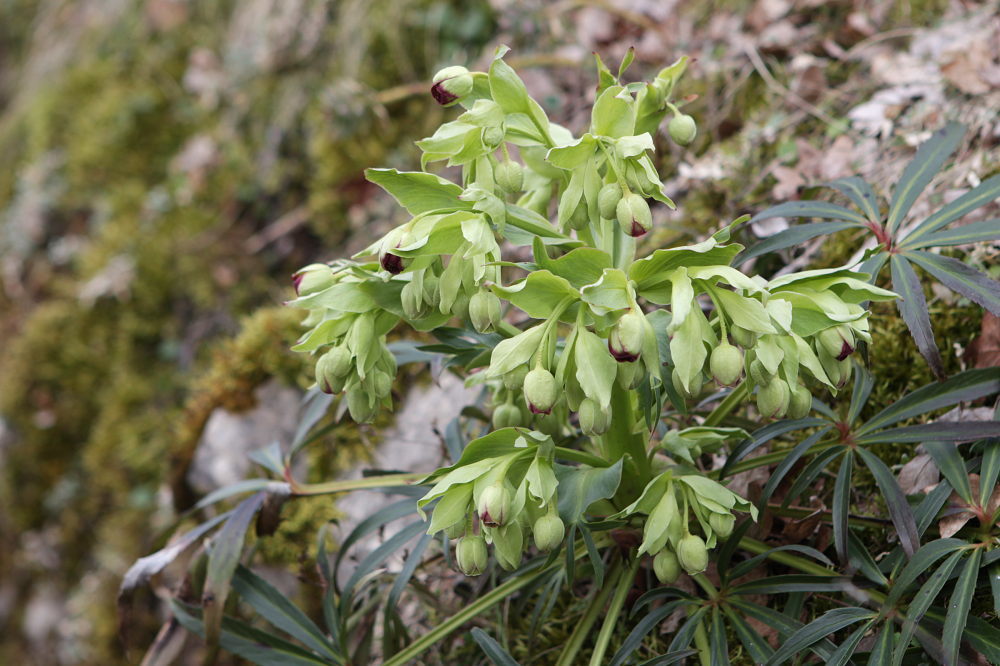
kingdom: Plantae
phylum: Tracheophyta
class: Magnoliopsida
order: Ranunculales
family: Ranunculaceae
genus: Helleborus
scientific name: Helleborus foetidus
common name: Stinking hellebore
